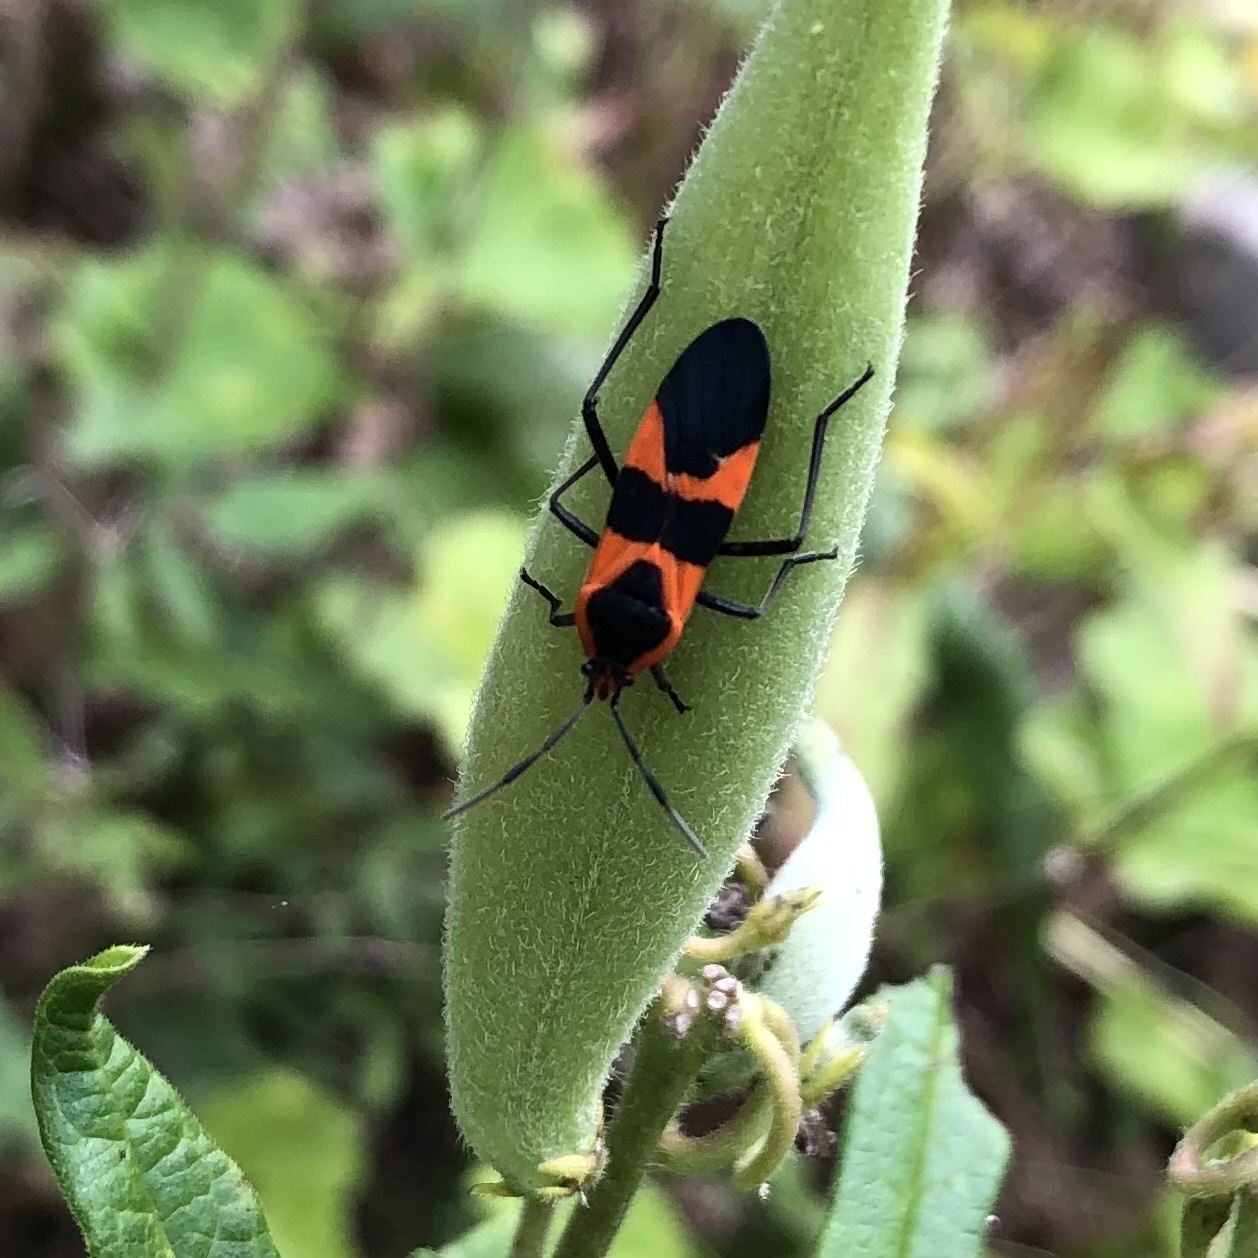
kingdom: Animalia
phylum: Arthropoda
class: Insecta
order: Hemiptera
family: Lygaeidae
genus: Oncopeltus
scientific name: Oncopeltus fasciatus
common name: Large milkweed bug
